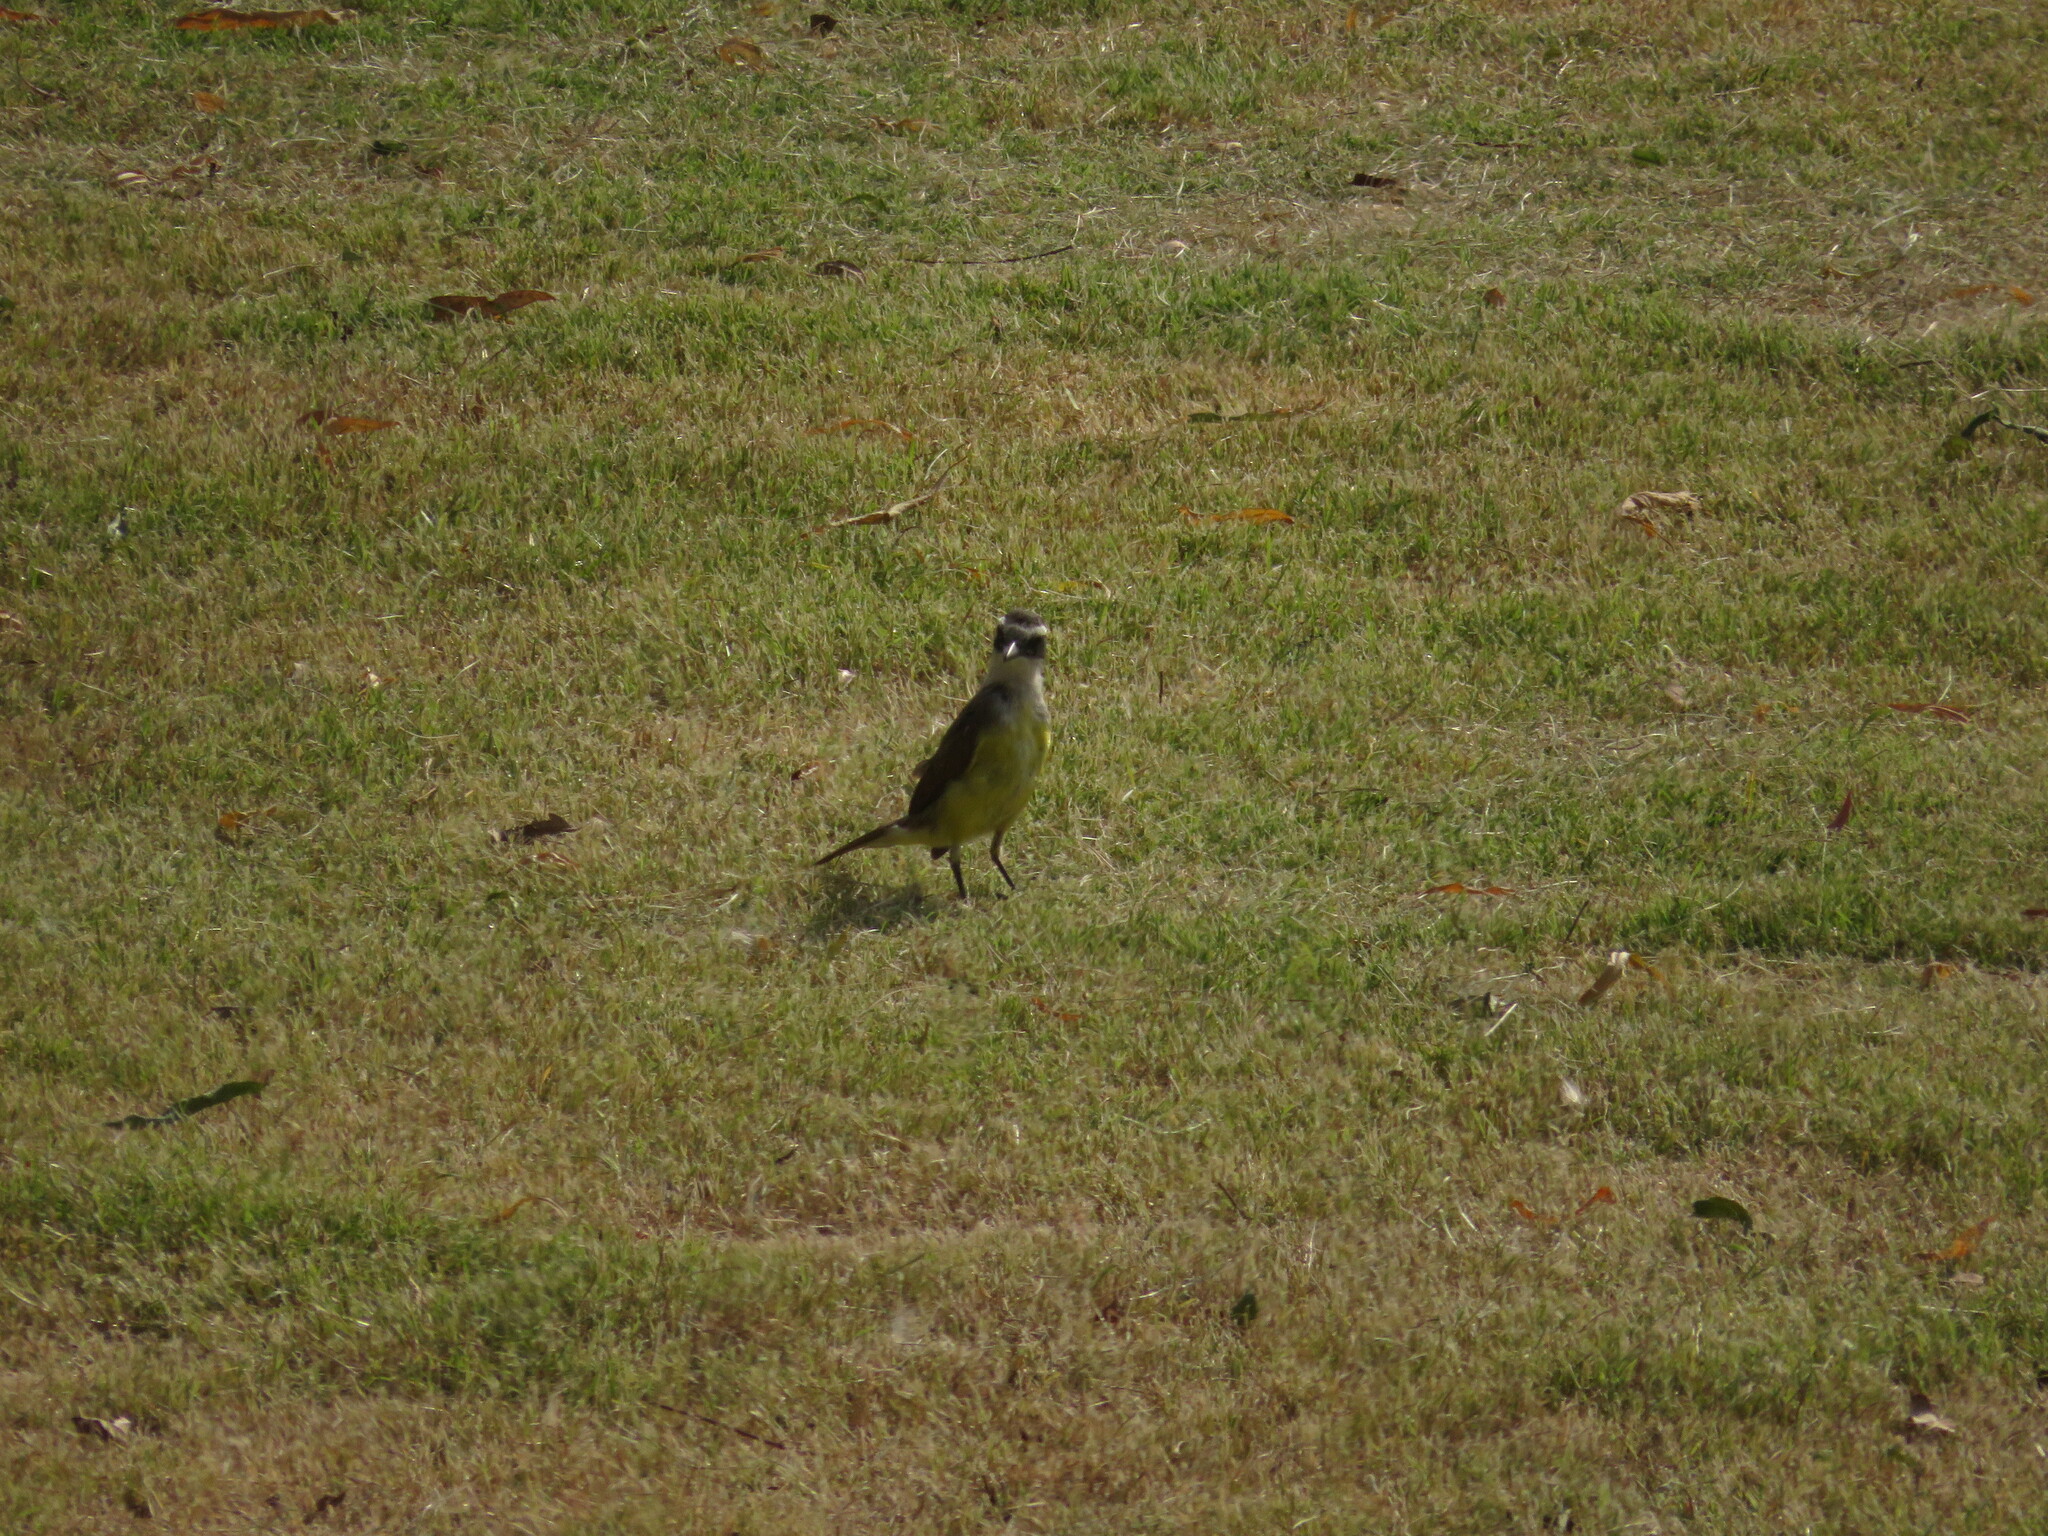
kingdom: Animalia
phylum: Chordata
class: Aves
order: Passeriformes
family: Tyrannidae
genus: Pitangus
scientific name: Pitangus sulphuratus
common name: Great kiskadee
